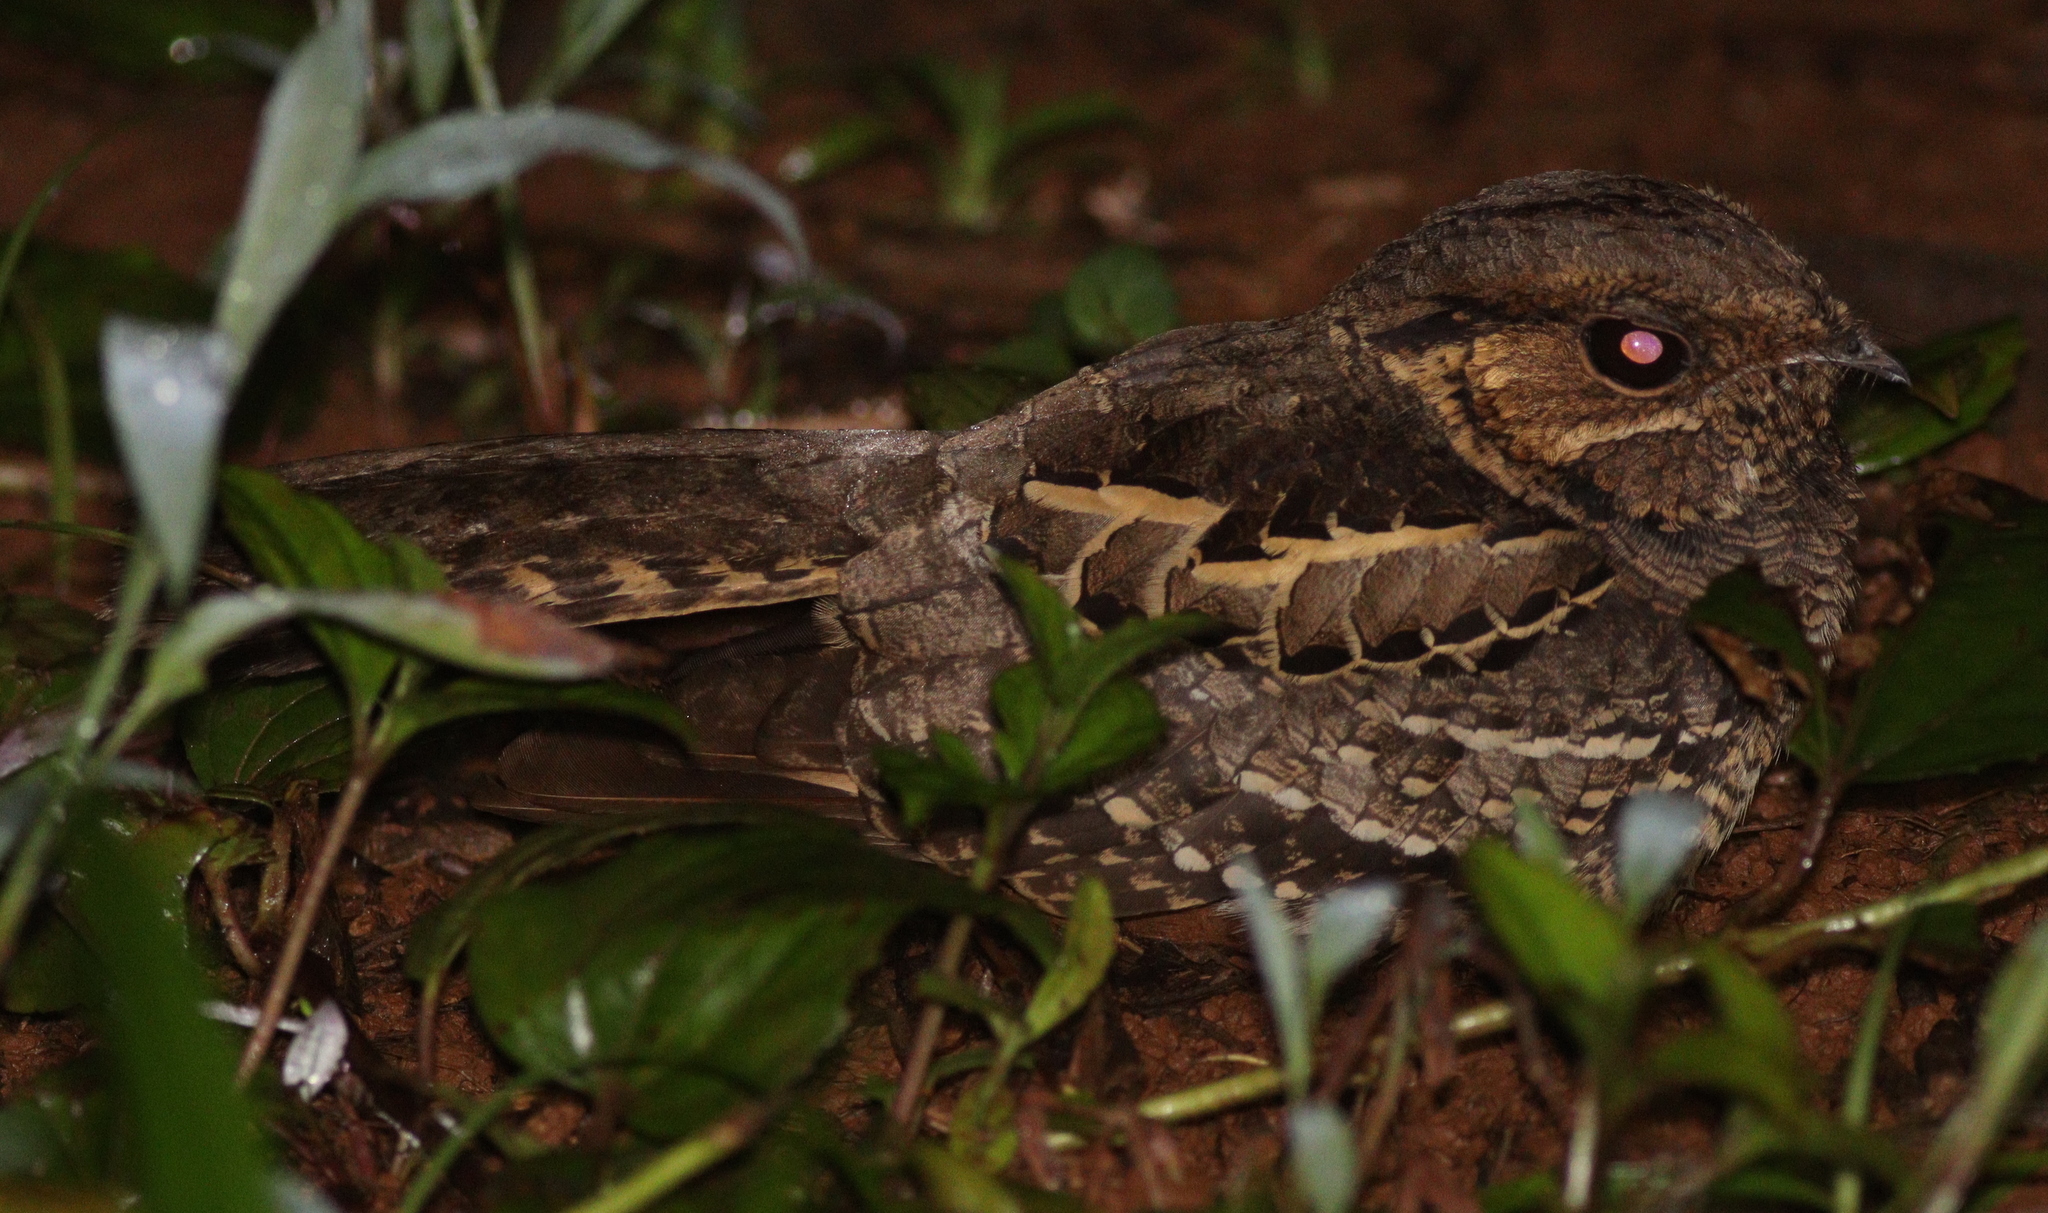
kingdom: Animalia
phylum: Chordata
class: Aves
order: Caprimulgiformes
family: Caprimulgidae
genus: Nyctidromus
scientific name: Nyctidromus albicollis
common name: Pauraque
